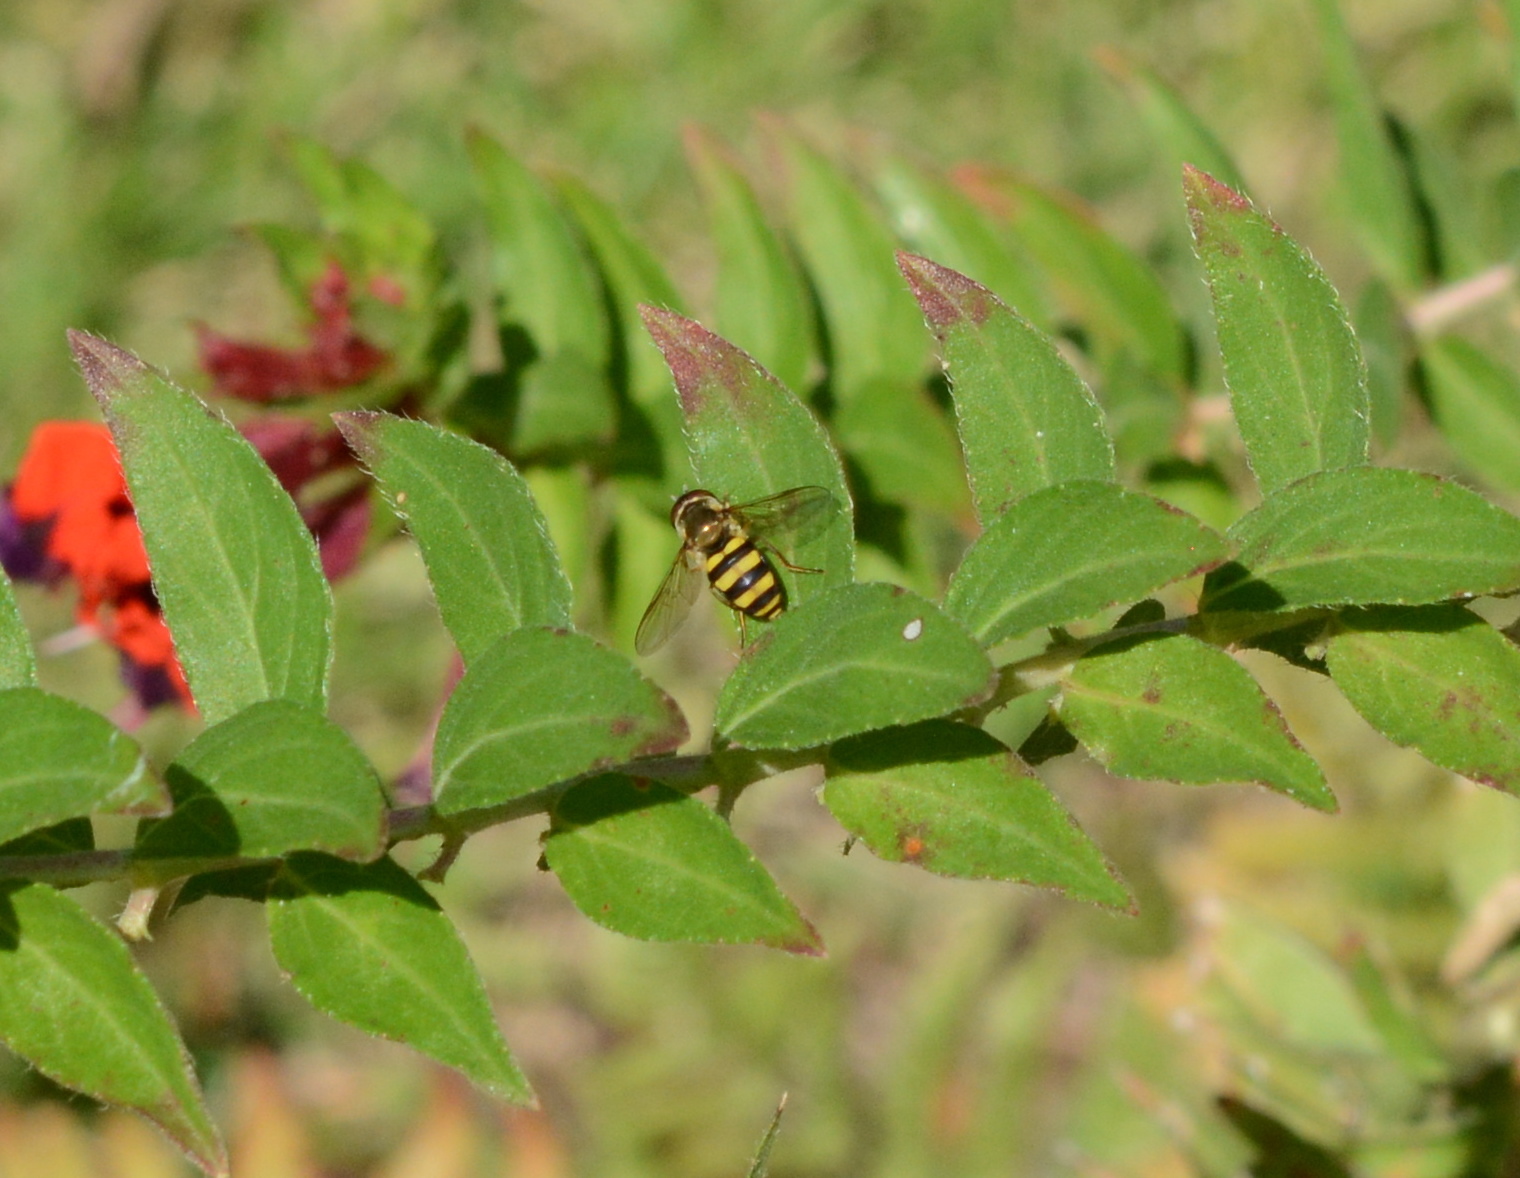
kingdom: Animalia
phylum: Arthropoda
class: Insecta
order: Diptera
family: Syrphidae
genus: Eupeodes
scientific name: Eupeodes
